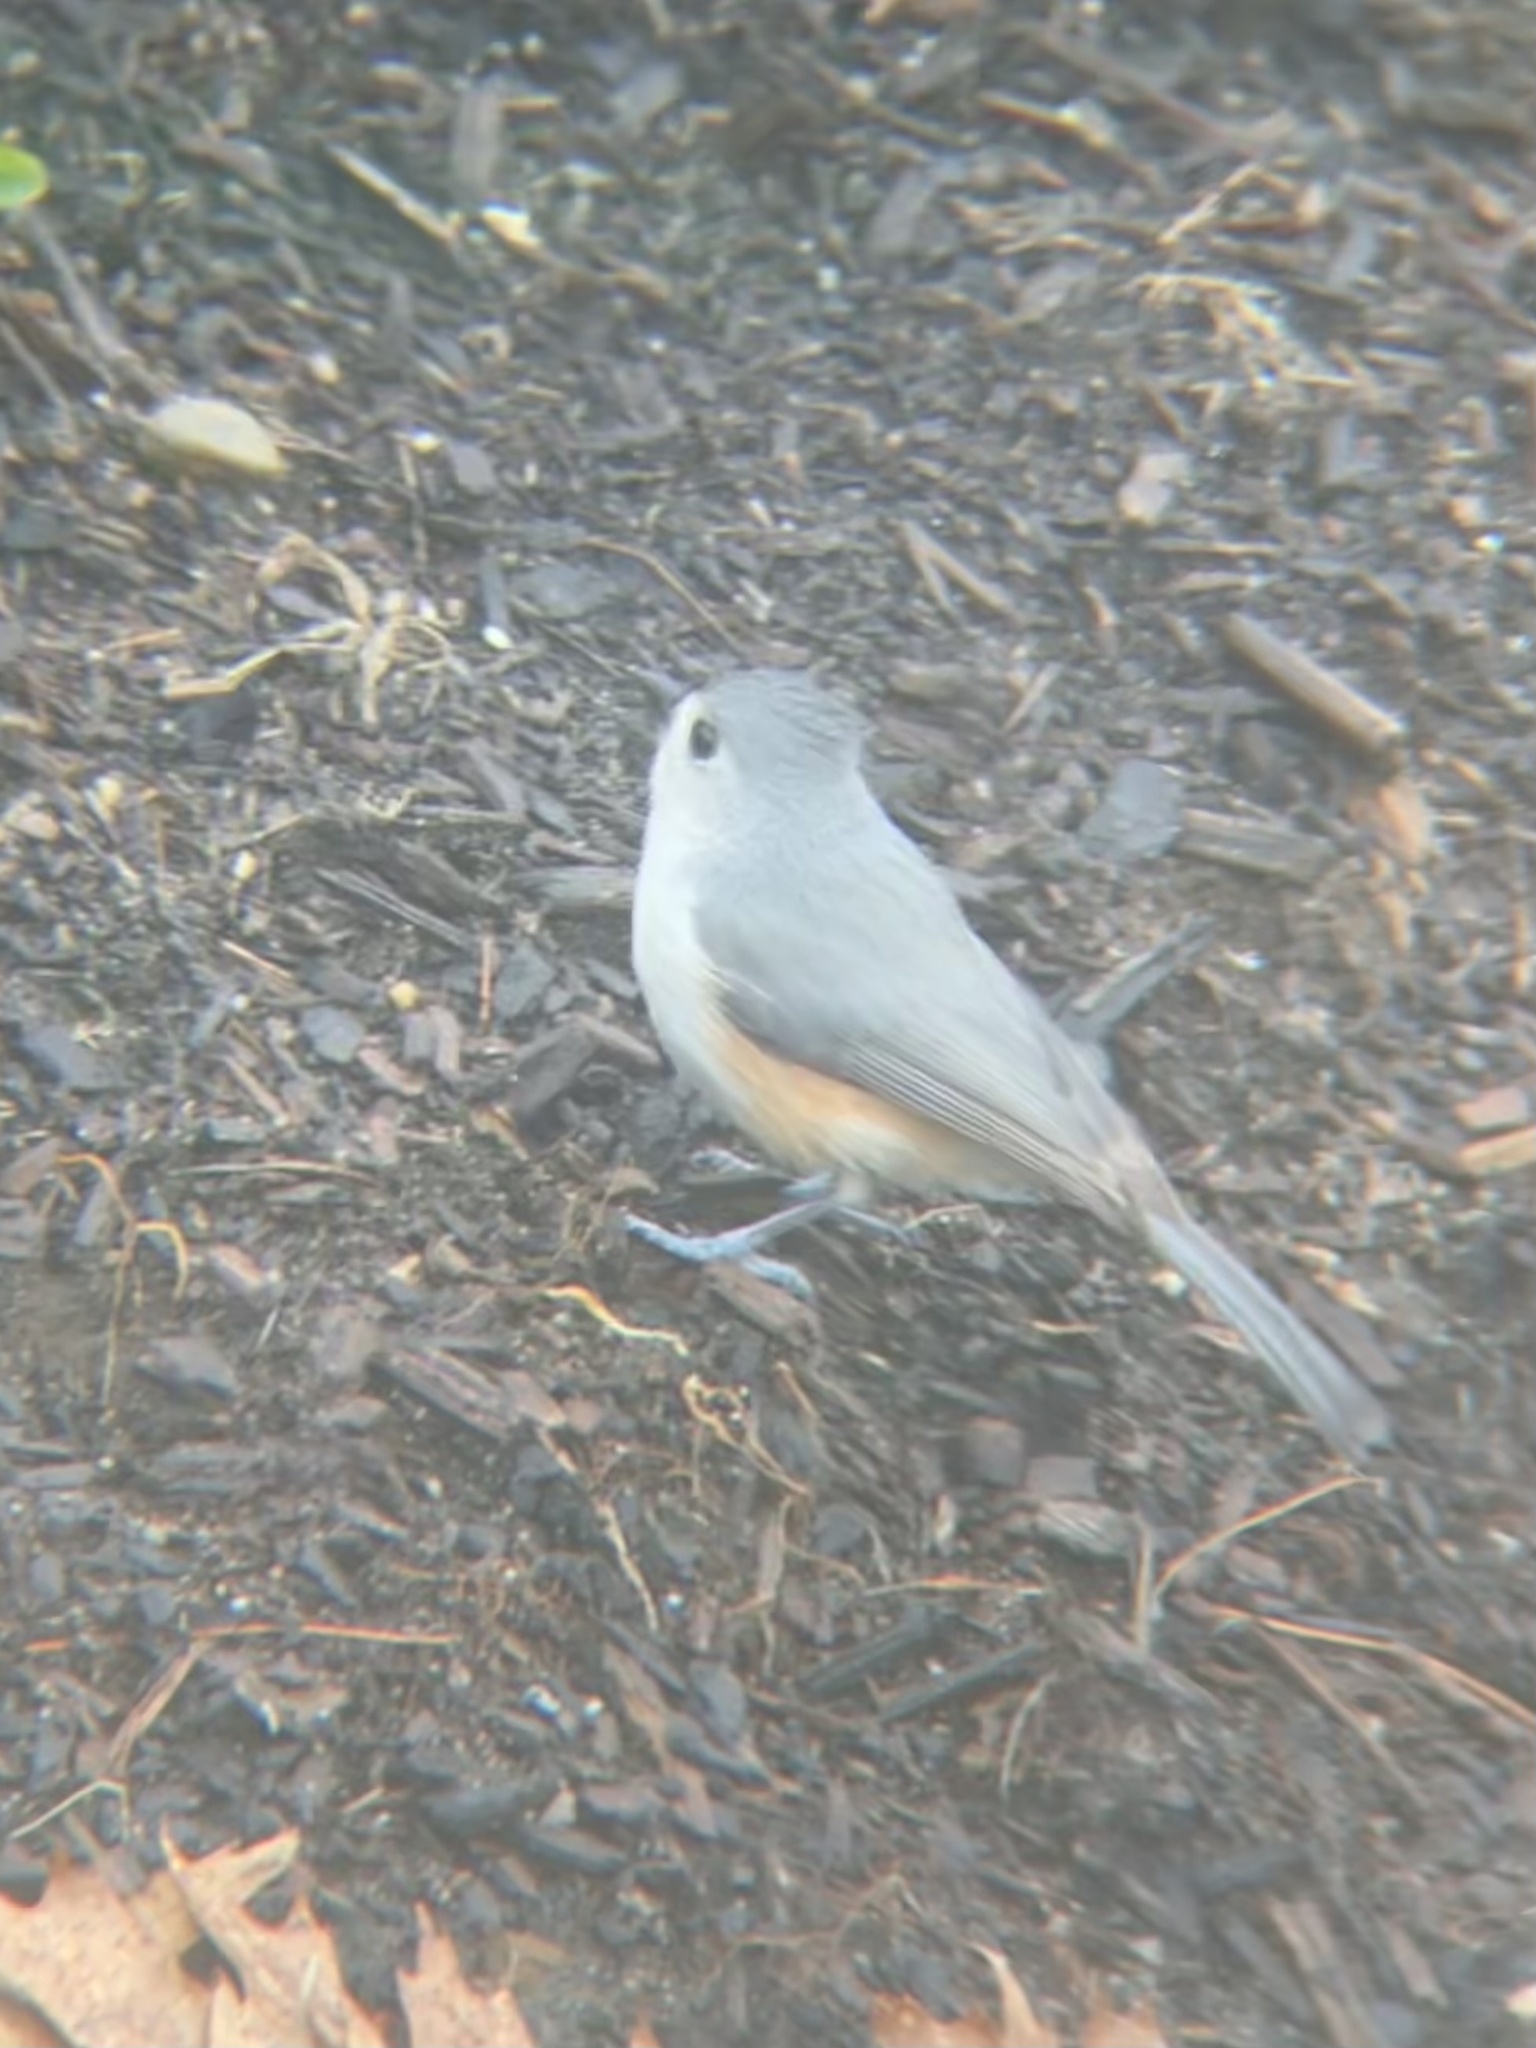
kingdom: Animalia
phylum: Chordata
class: Aves
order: Passeriformes
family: Paridae
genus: Baeolophus
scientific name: Baeolophus bicolor
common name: Tufted titmouse
